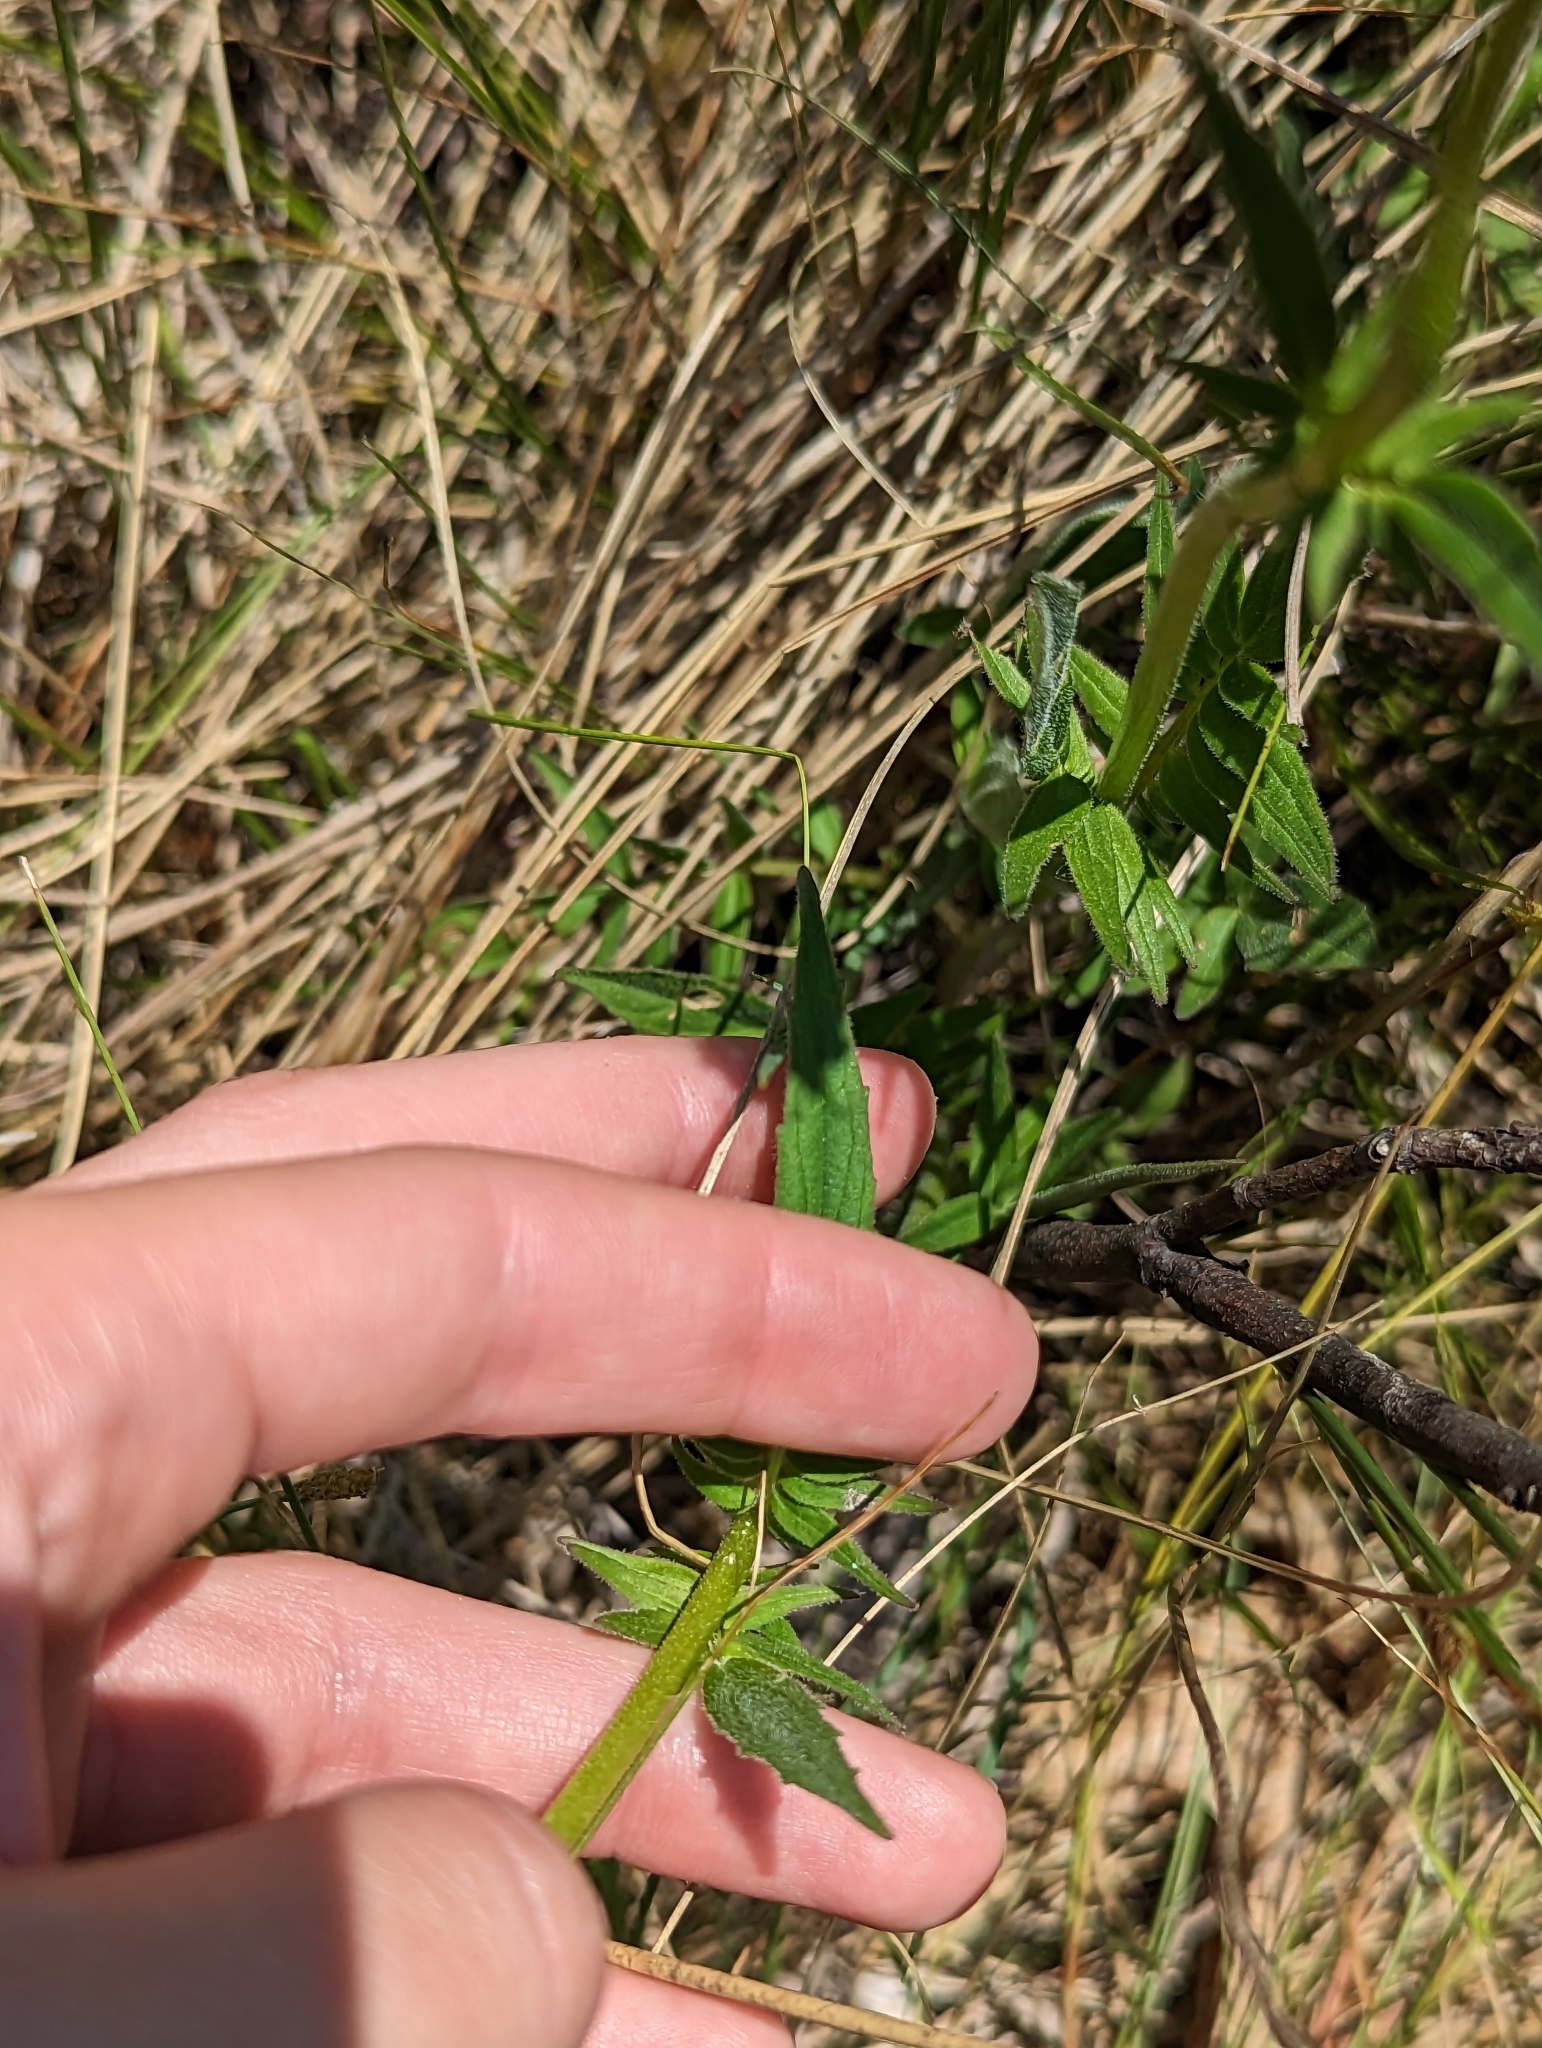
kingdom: Plantae
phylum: Tracheophyta
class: Magnoliopsida
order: Dipsacales
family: Caprifoliaceae
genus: Valeriana
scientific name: Valeriana uliginosa
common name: Marsh valerian
